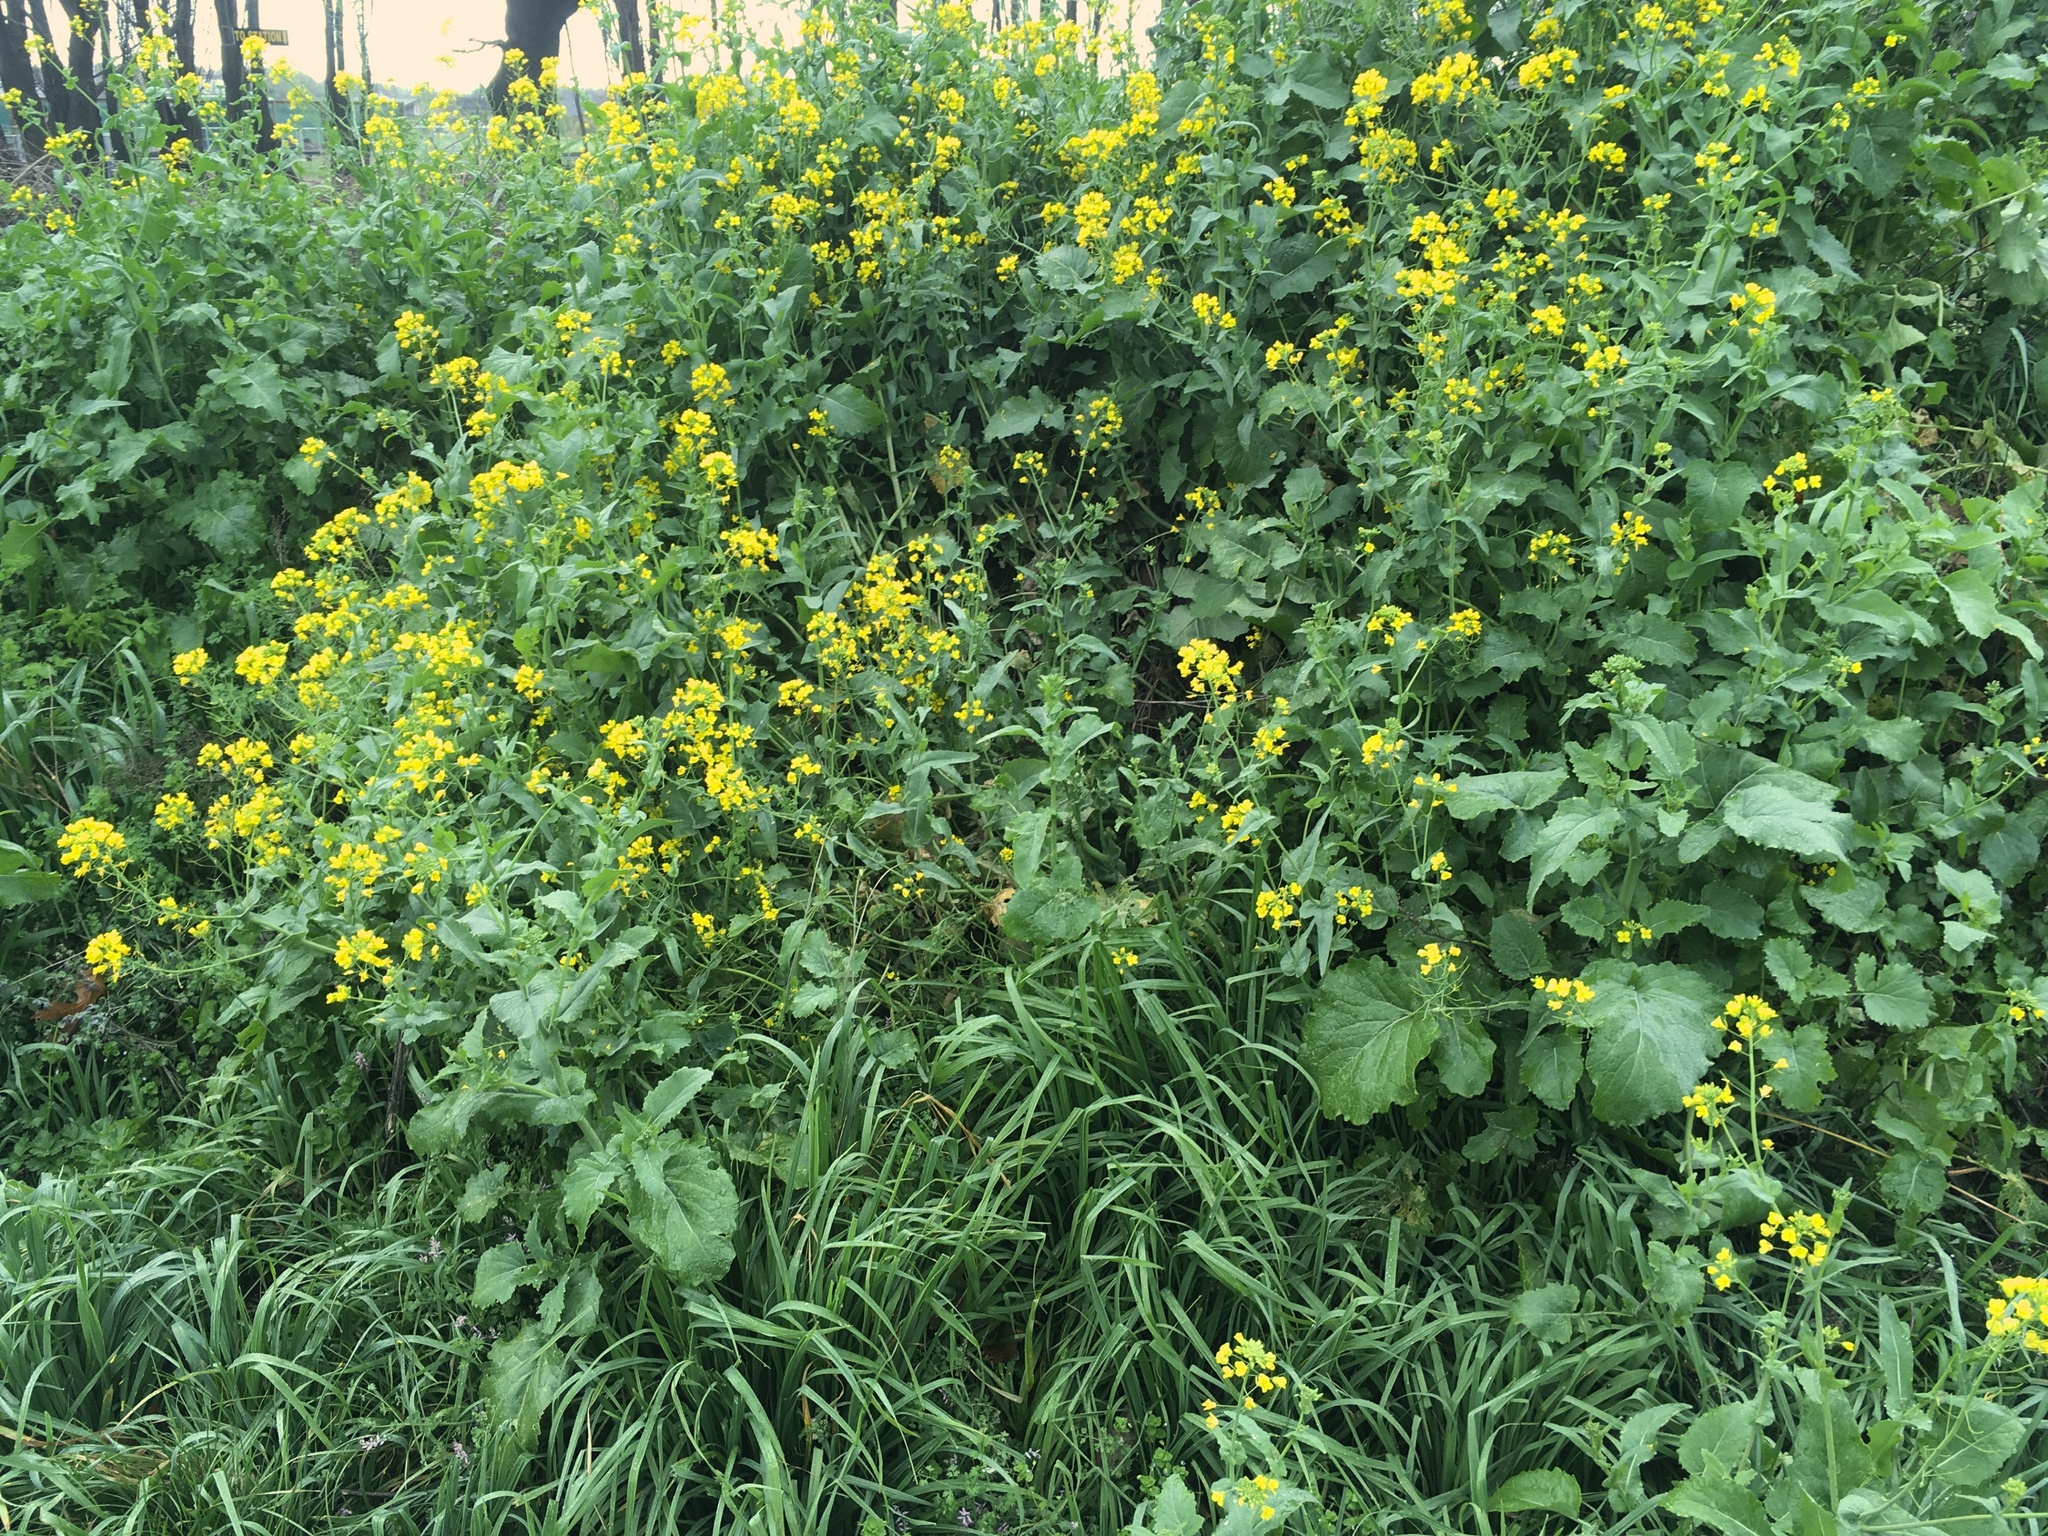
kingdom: Plantae
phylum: Tracheophyta
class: Magnoliopsida
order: Brassicales
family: Brassicaceae
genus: Brassica
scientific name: Brassica napus
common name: Rape
